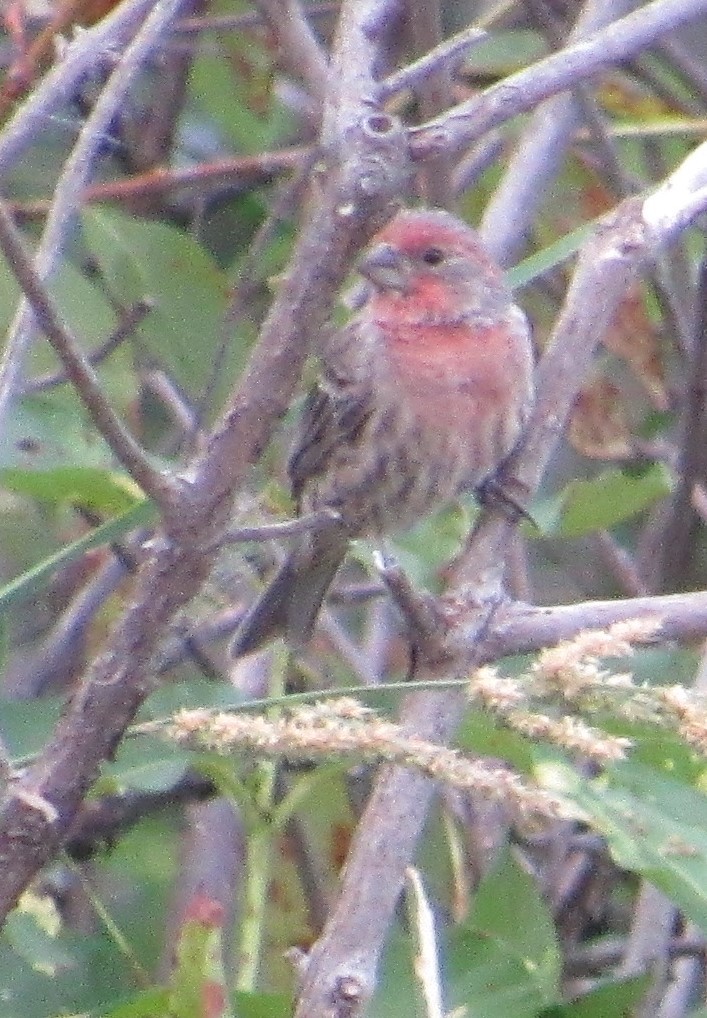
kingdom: Animalia
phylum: Chordata
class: Aves
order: Passeriformes
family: Fringillidae
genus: Haemorhous
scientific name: Haemorhous mexicanus
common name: House finch
